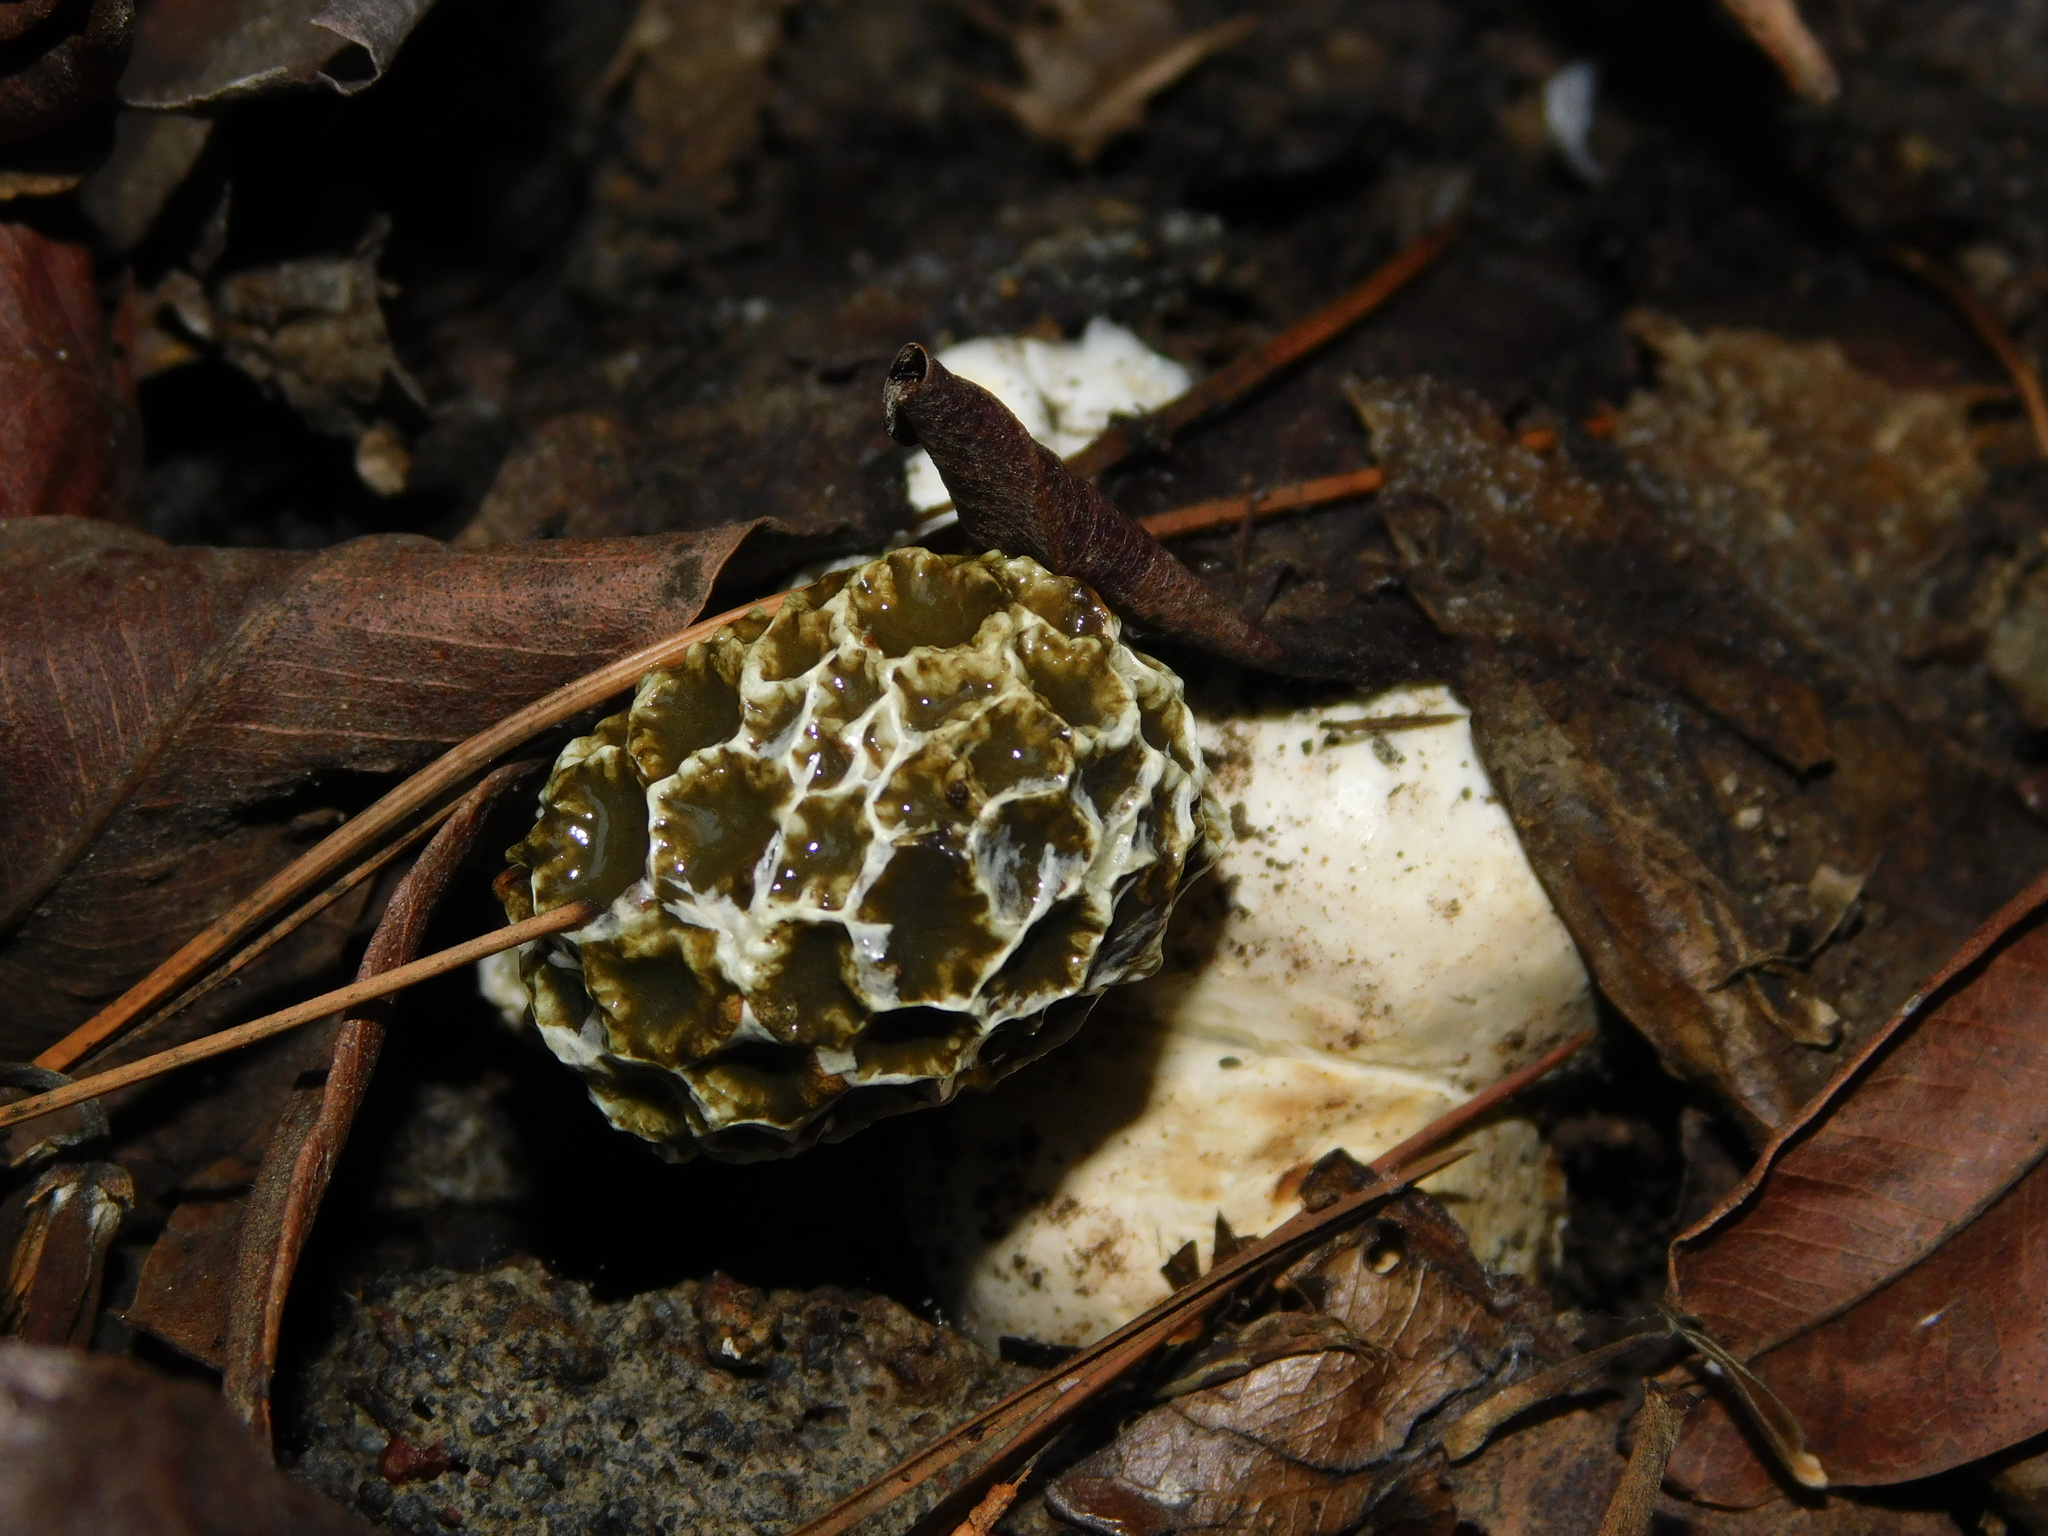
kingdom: Fungi
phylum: Basidiomycota
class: Agaricomycetes
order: Phallales
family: Phallaceae
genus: Lysurus
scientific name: Lysurus periphragmoides
